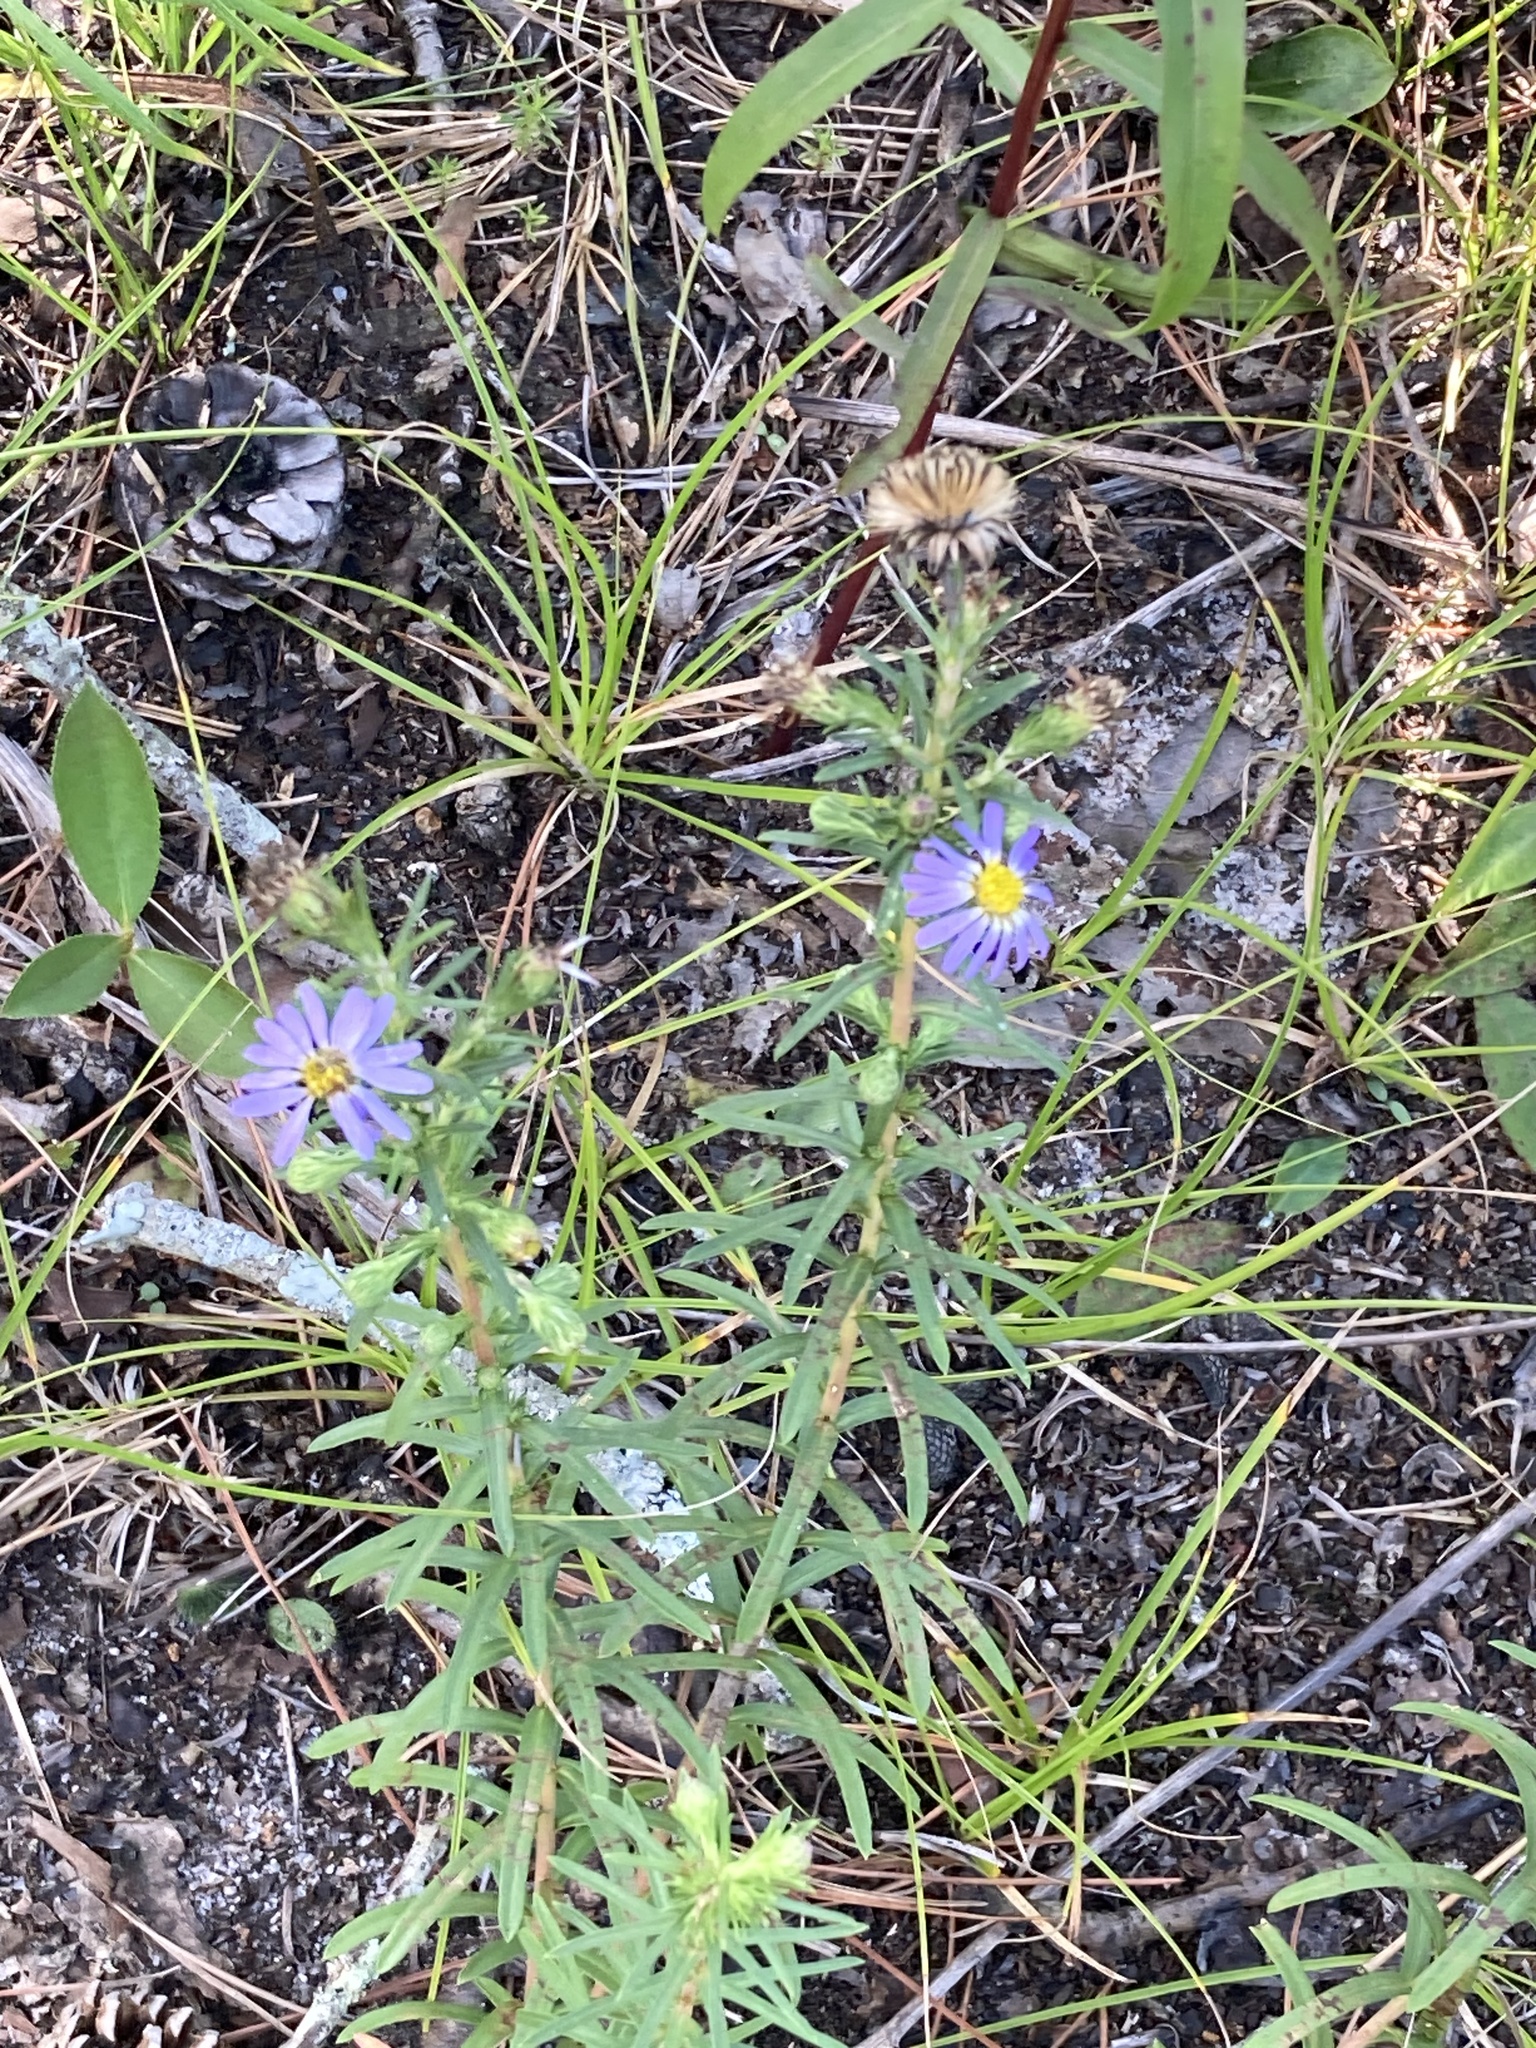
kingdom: Plantae
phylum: Tracheophyta
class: Magnoliopsida
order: Asterales
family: Asteraceae
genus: Ionactis
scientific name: Ionactis linariifolia
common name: Flax-leaf aster
